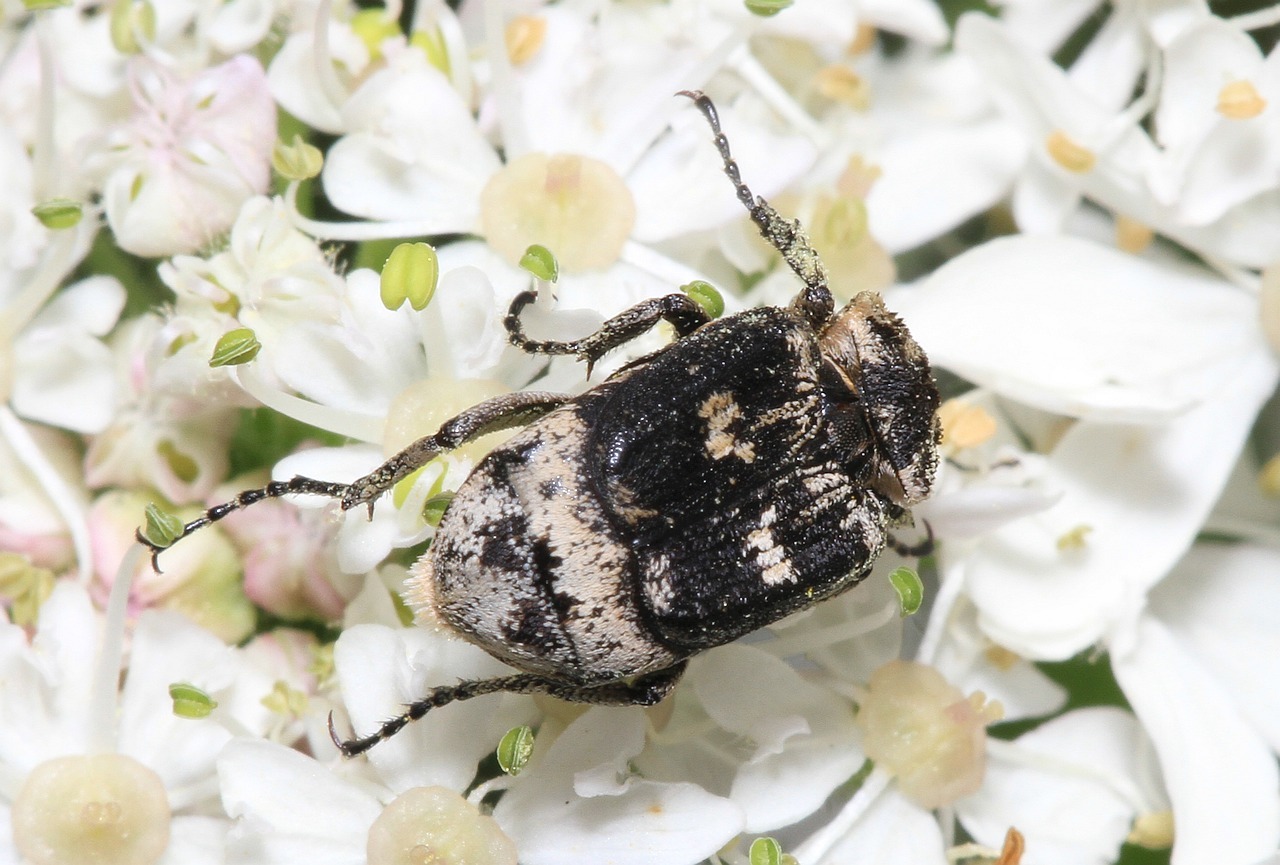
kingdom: Animalia
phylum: Arthropoda
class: Insecta
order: Coleoptera
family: Scarabaeidae
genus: Valgus
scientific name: Valgus hemipterus
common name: Bug flower chafer
